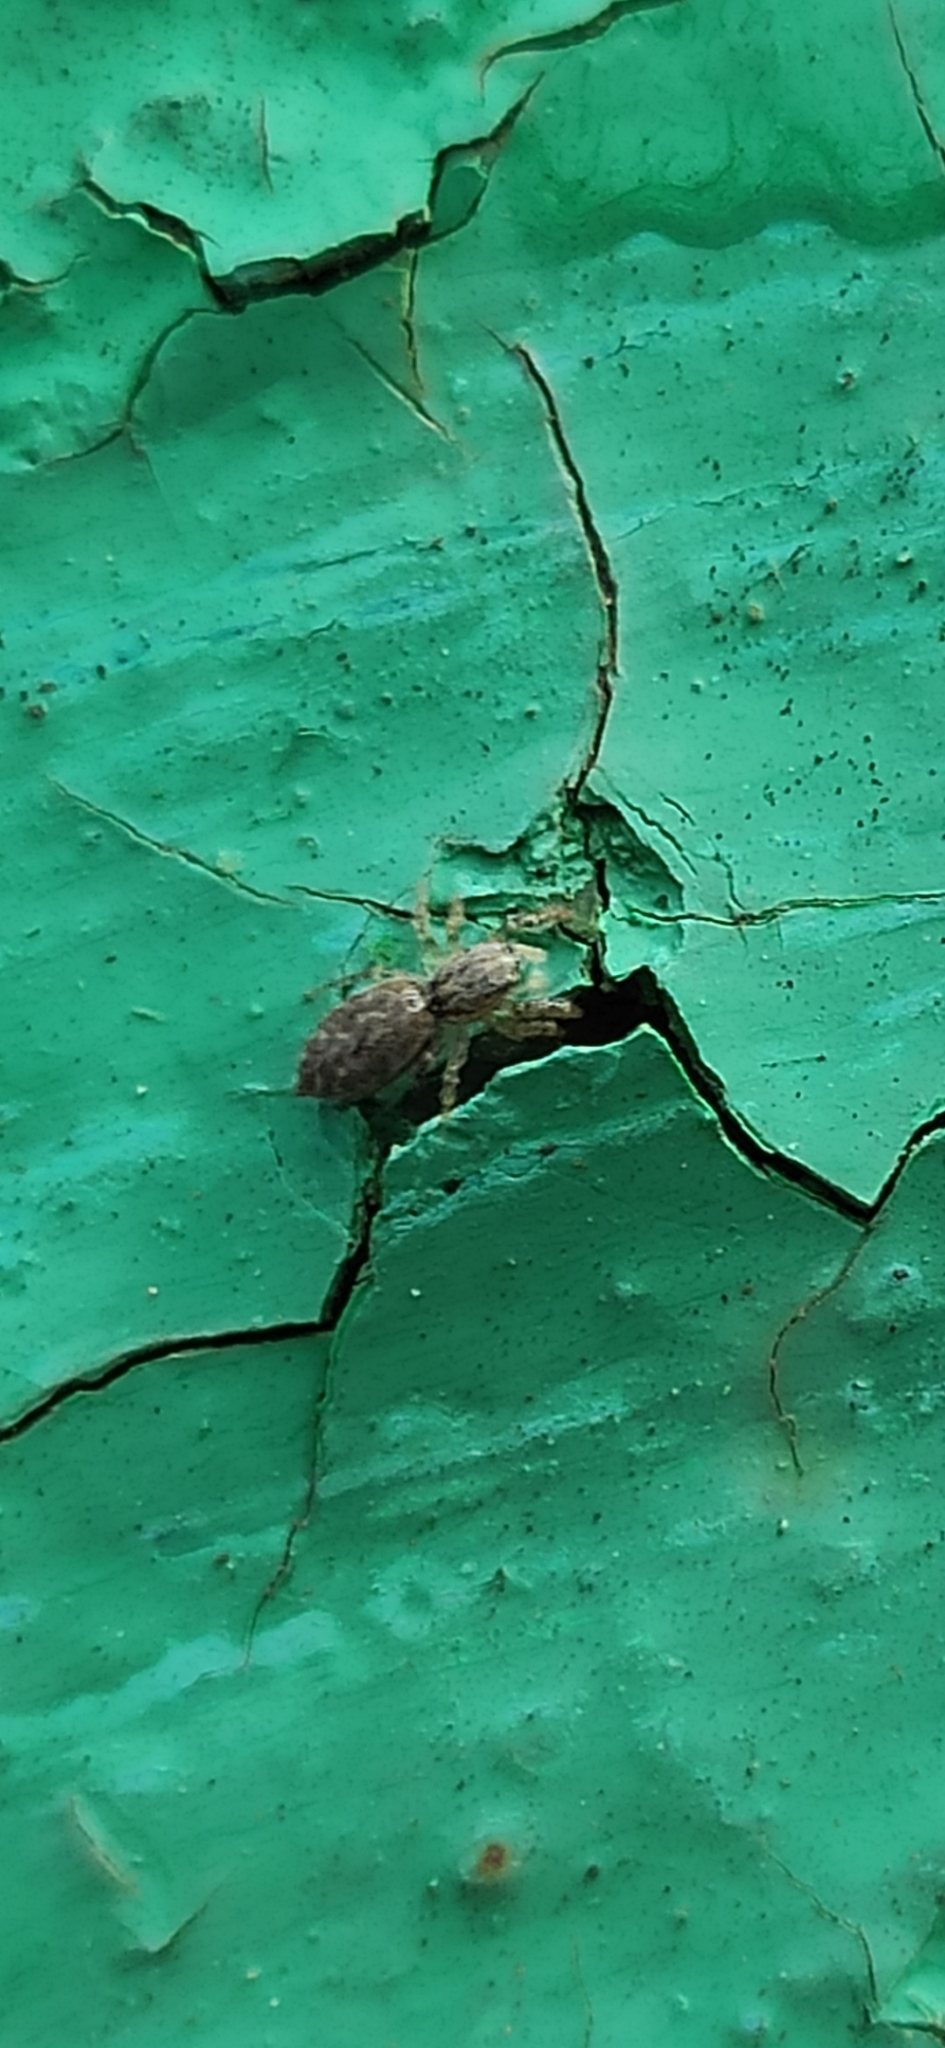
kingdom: Animalia
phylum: Arthropoda
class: Arachnida
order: Araneae
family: Salticidae
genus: Pseudicius
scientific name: Pseudicius encarpatus
